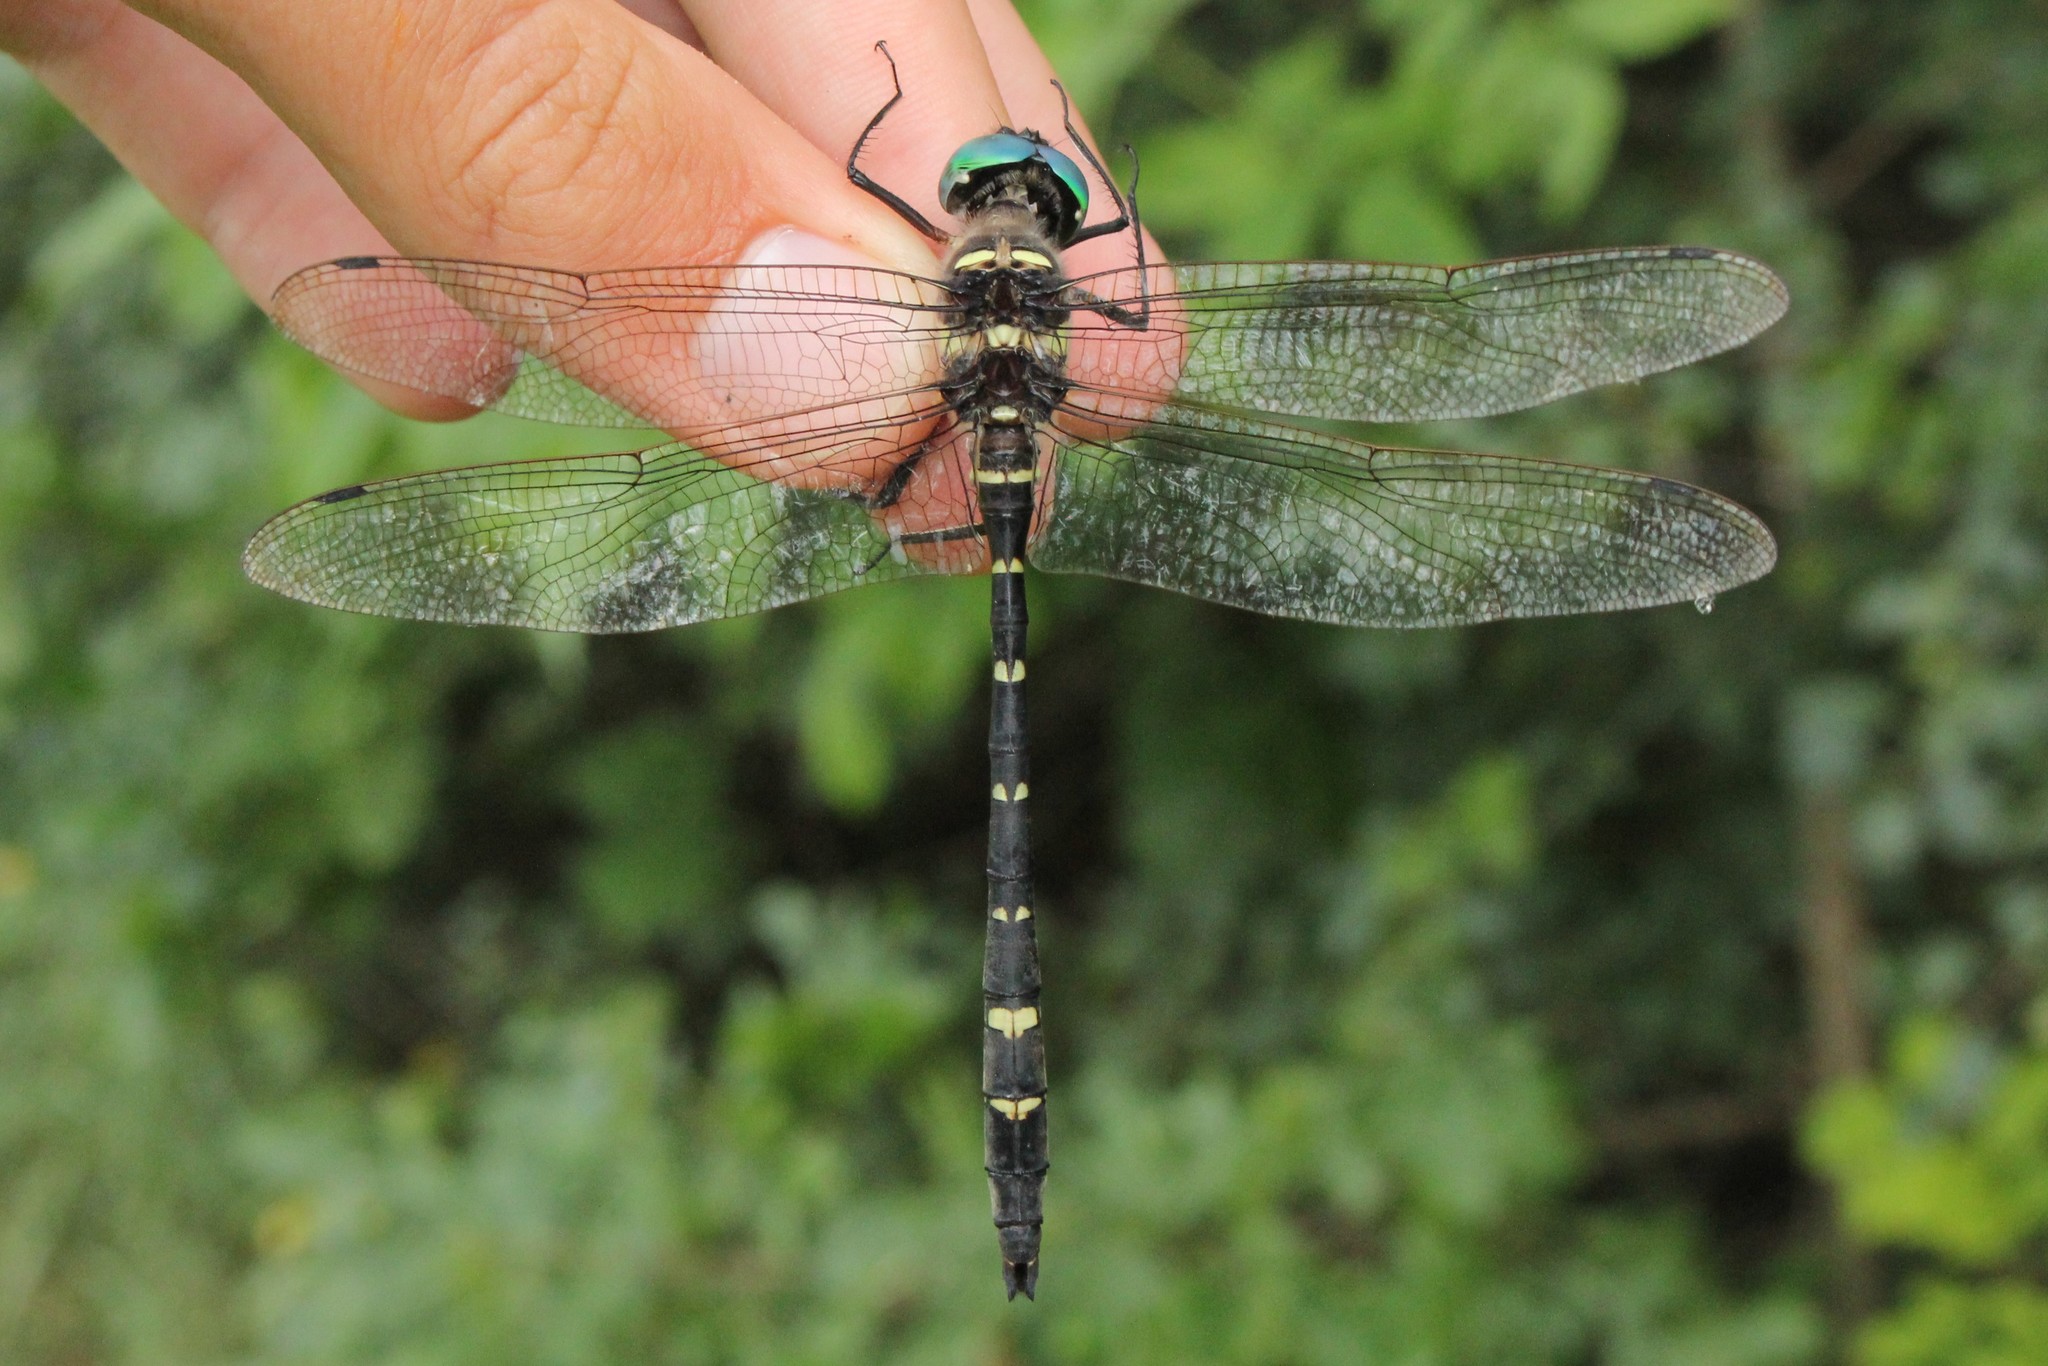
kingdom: Animalia
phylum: Arthropoda
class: Insecta
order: Odonata
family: Macromiidae
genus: Macromia
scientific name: Macromia taeniolata
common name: Royal river cruiser
